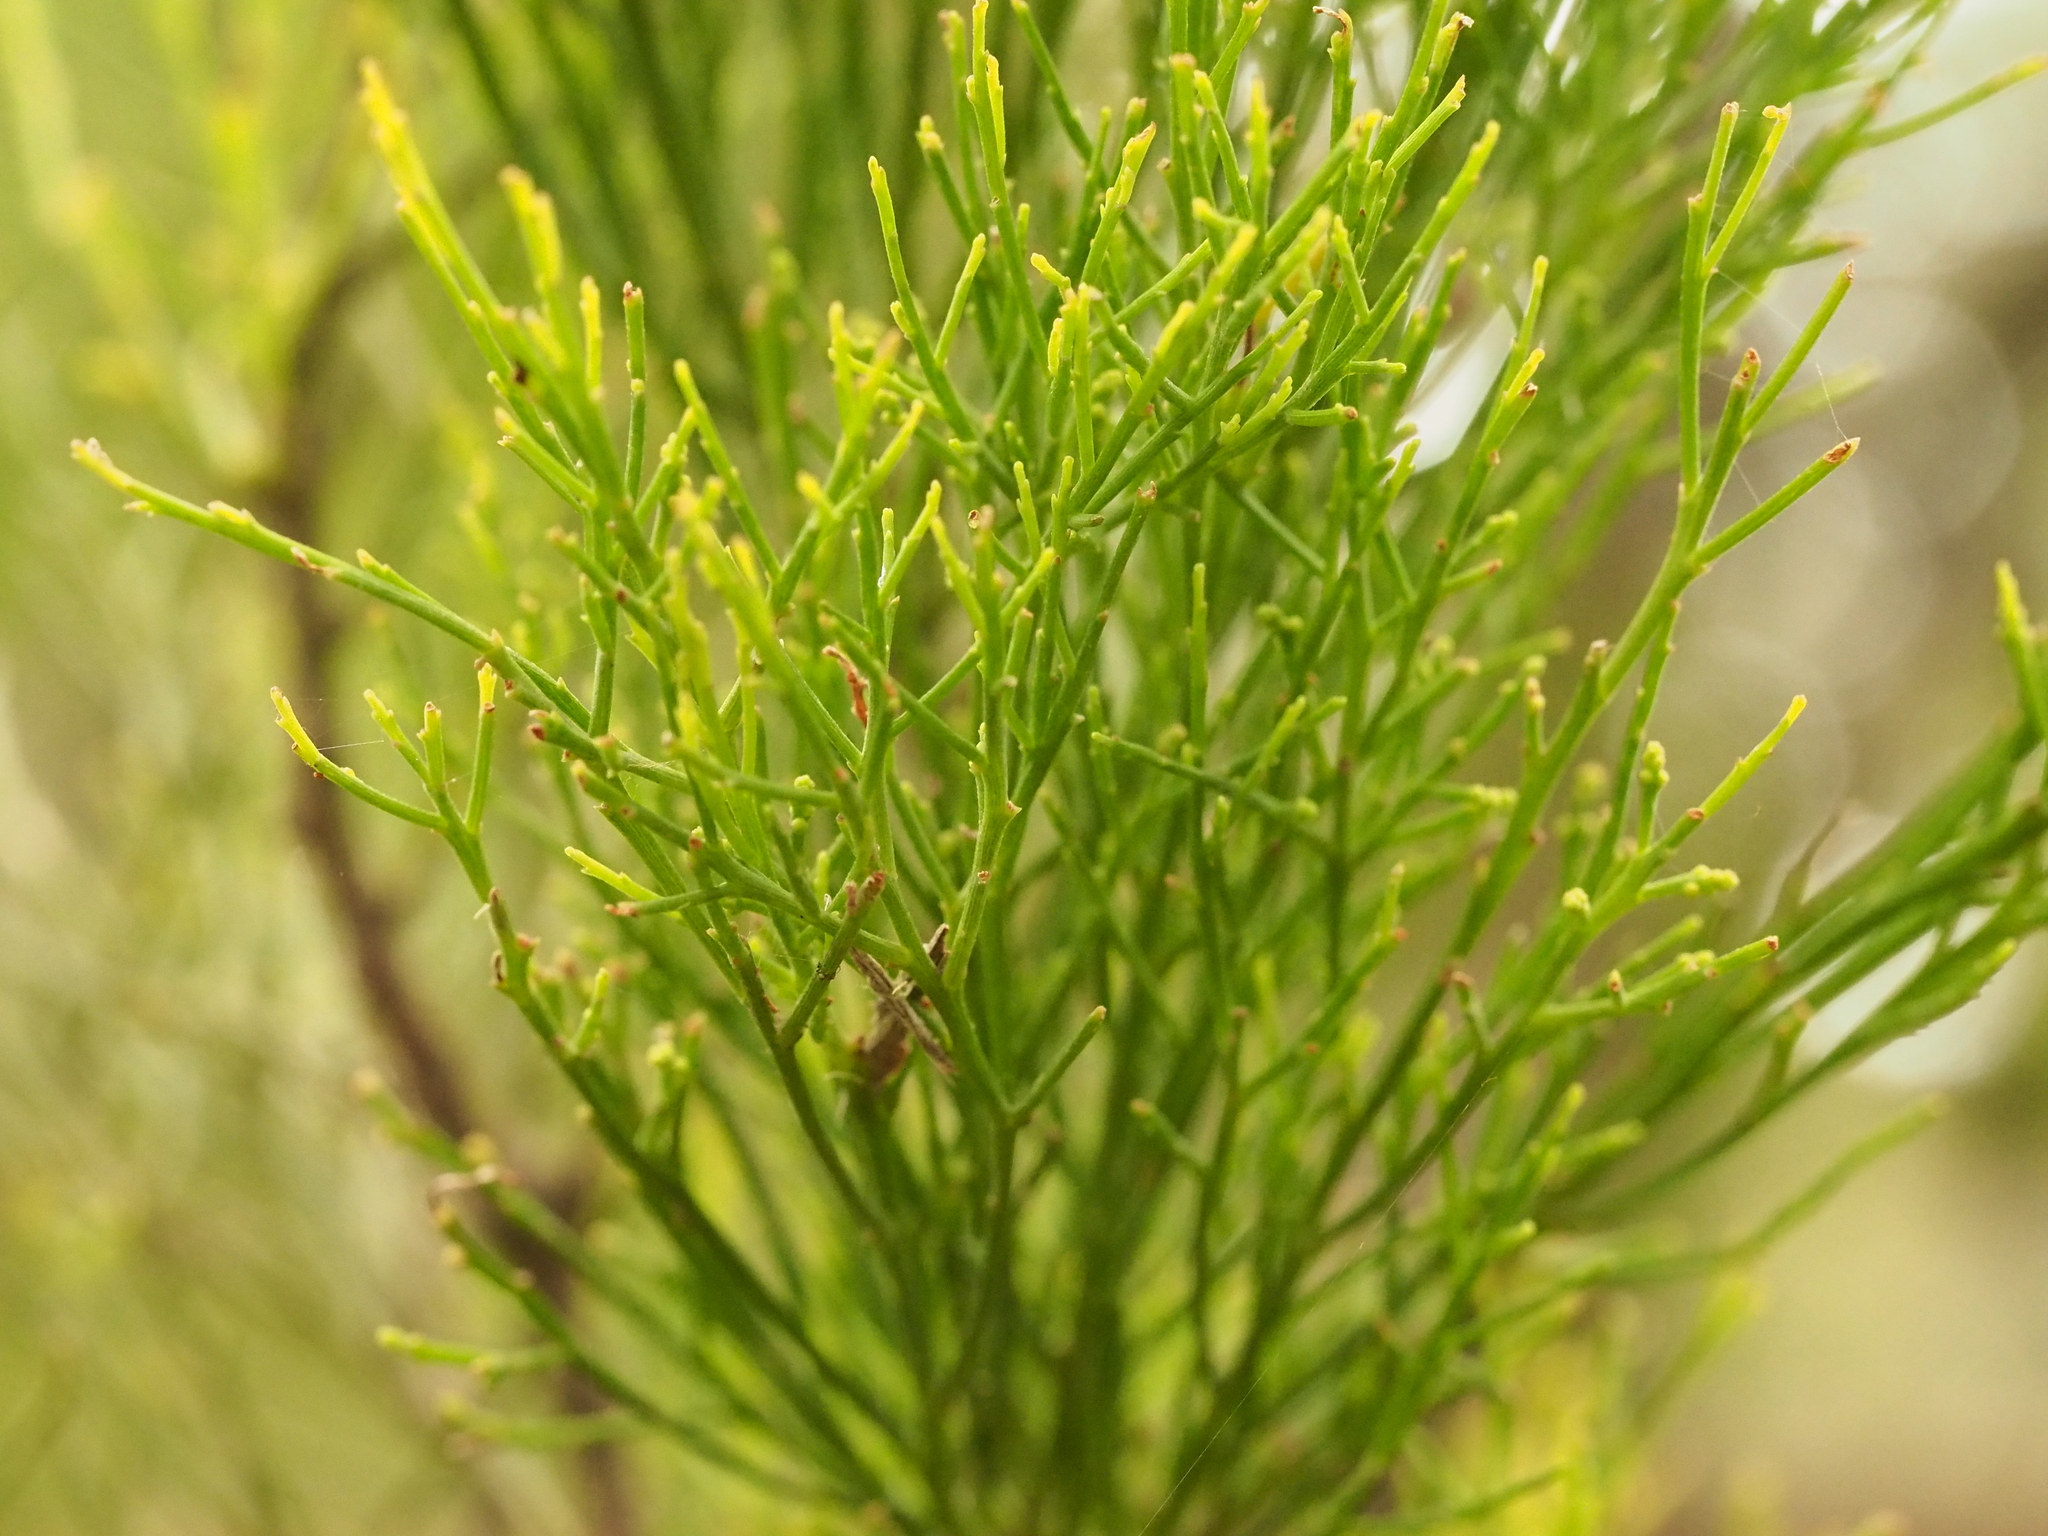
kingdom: Plantae
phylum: Tracheophyta
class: Magnoliopsida
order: Santalales
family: Santalaceae
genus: Exocarpos
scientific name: Exocarpos cupressiformis
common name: Cherry ballart
